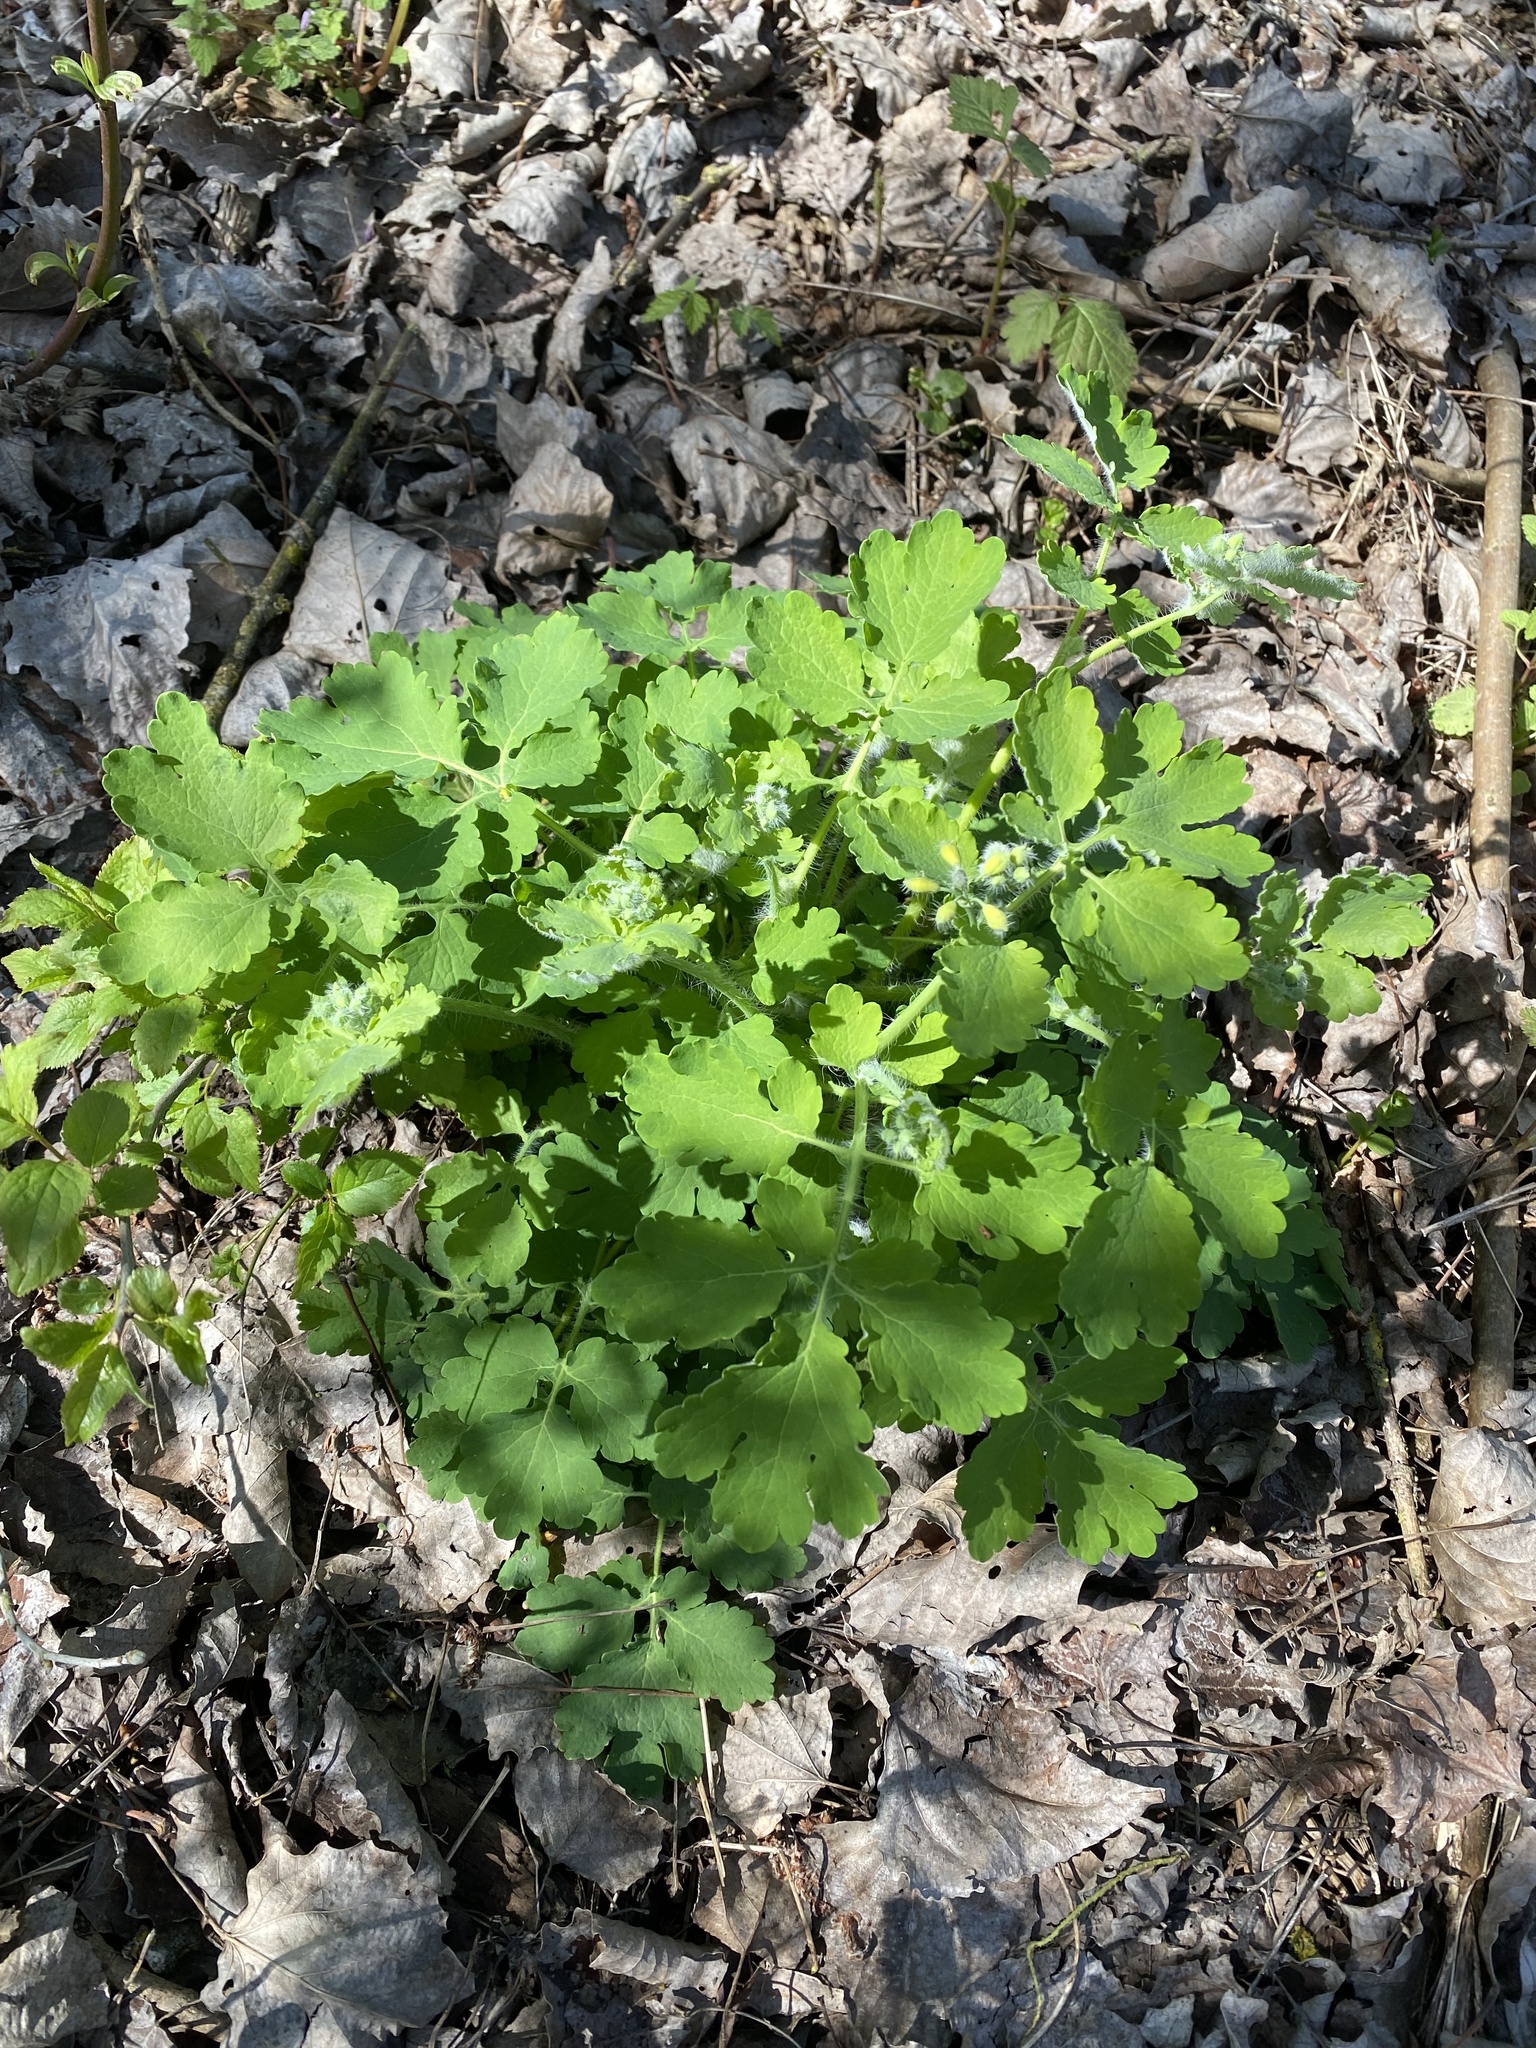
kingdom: Plantae
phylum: Tracheophyta
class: Magnoliopsida
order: Ranunculales
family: Papaveraceae
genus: Chelidonium
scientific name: Chelidonium majus
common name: Greater celandine
